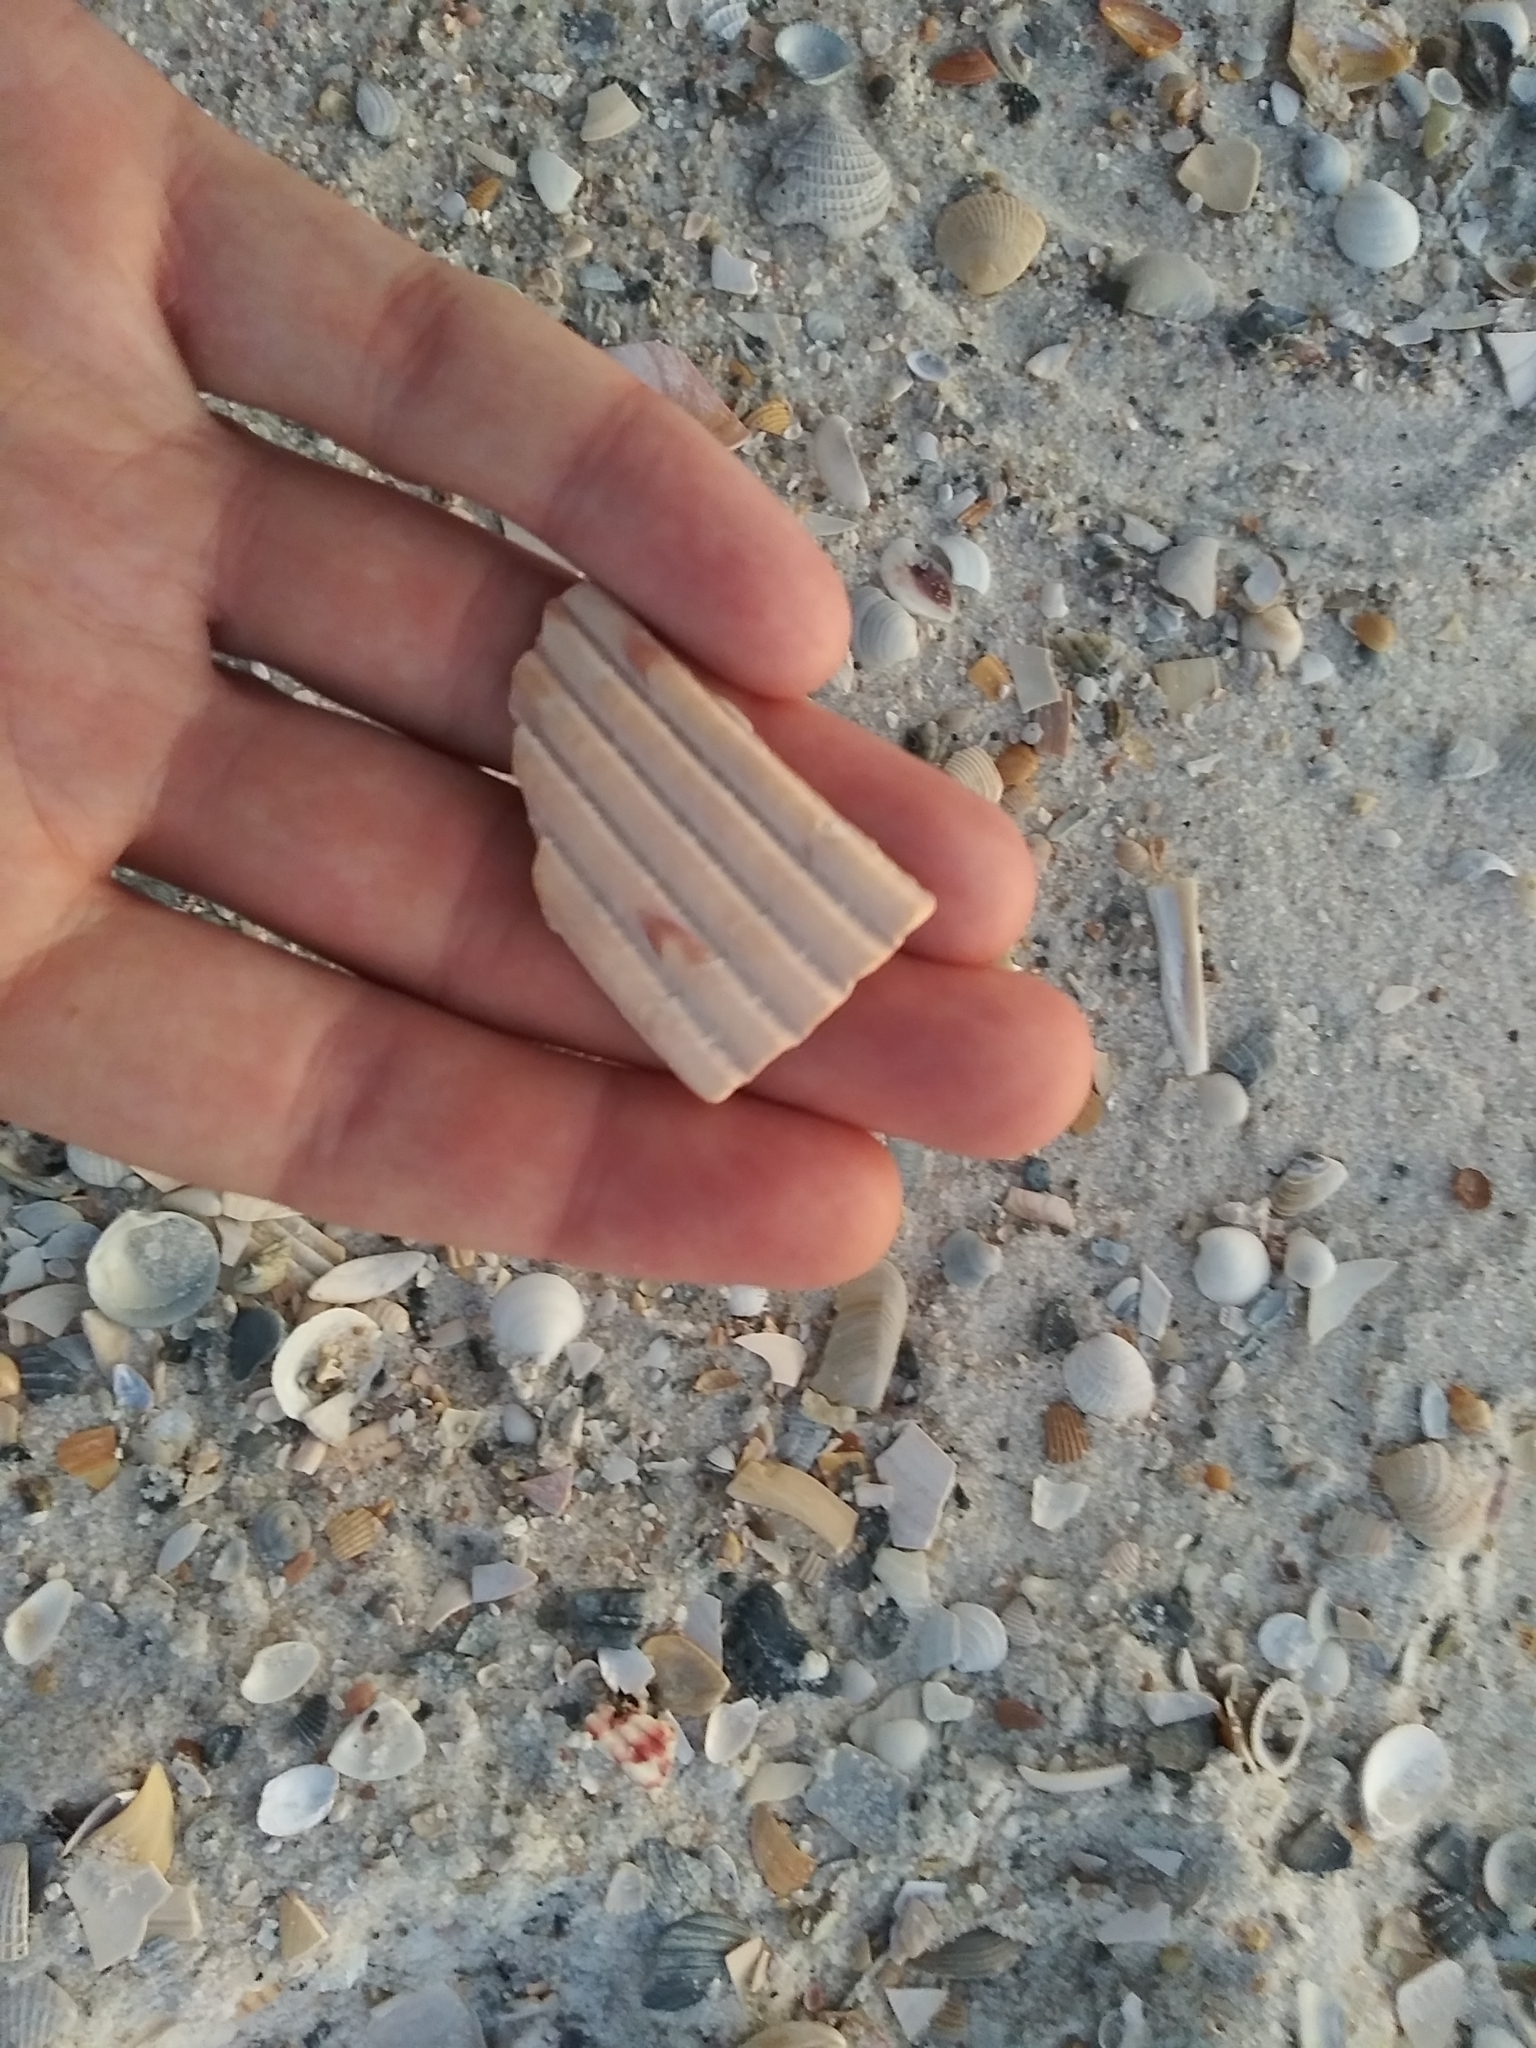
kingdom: Animalia
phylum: Mollusca
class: Bivalvia
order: Cardiida
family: Cardiidae
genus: Dinocardium
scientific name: Dinocardium robustum
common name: Atlantic giant cockle
